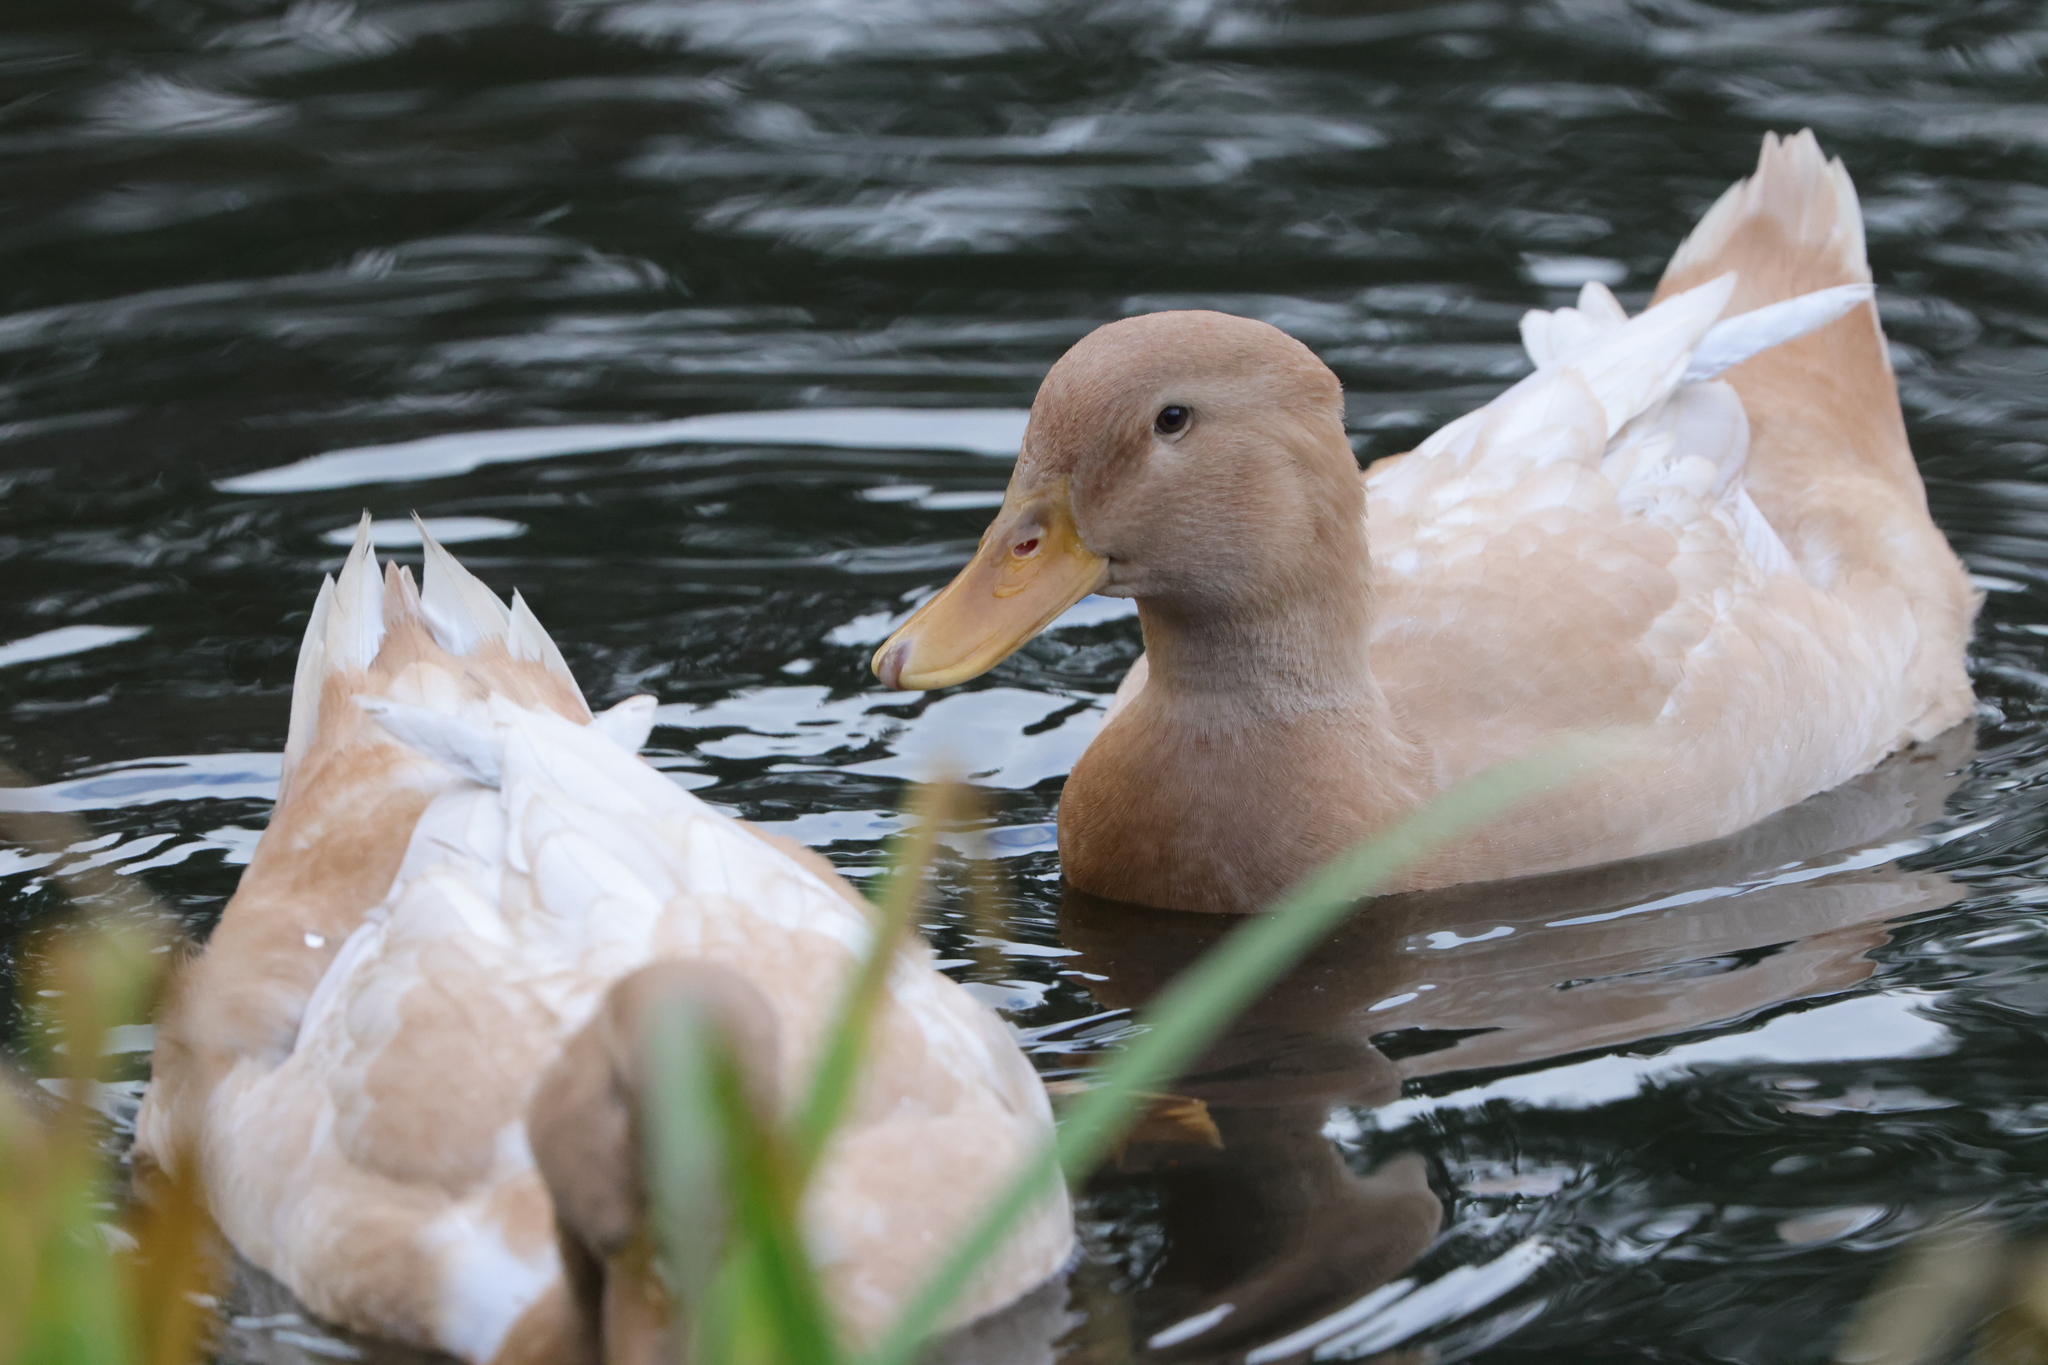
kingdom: Animalia
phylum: Chordata
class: Aves
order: Anseriformes
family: Anatidae
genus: Anas
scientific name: Anas platyrhynchos
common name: Mallard
